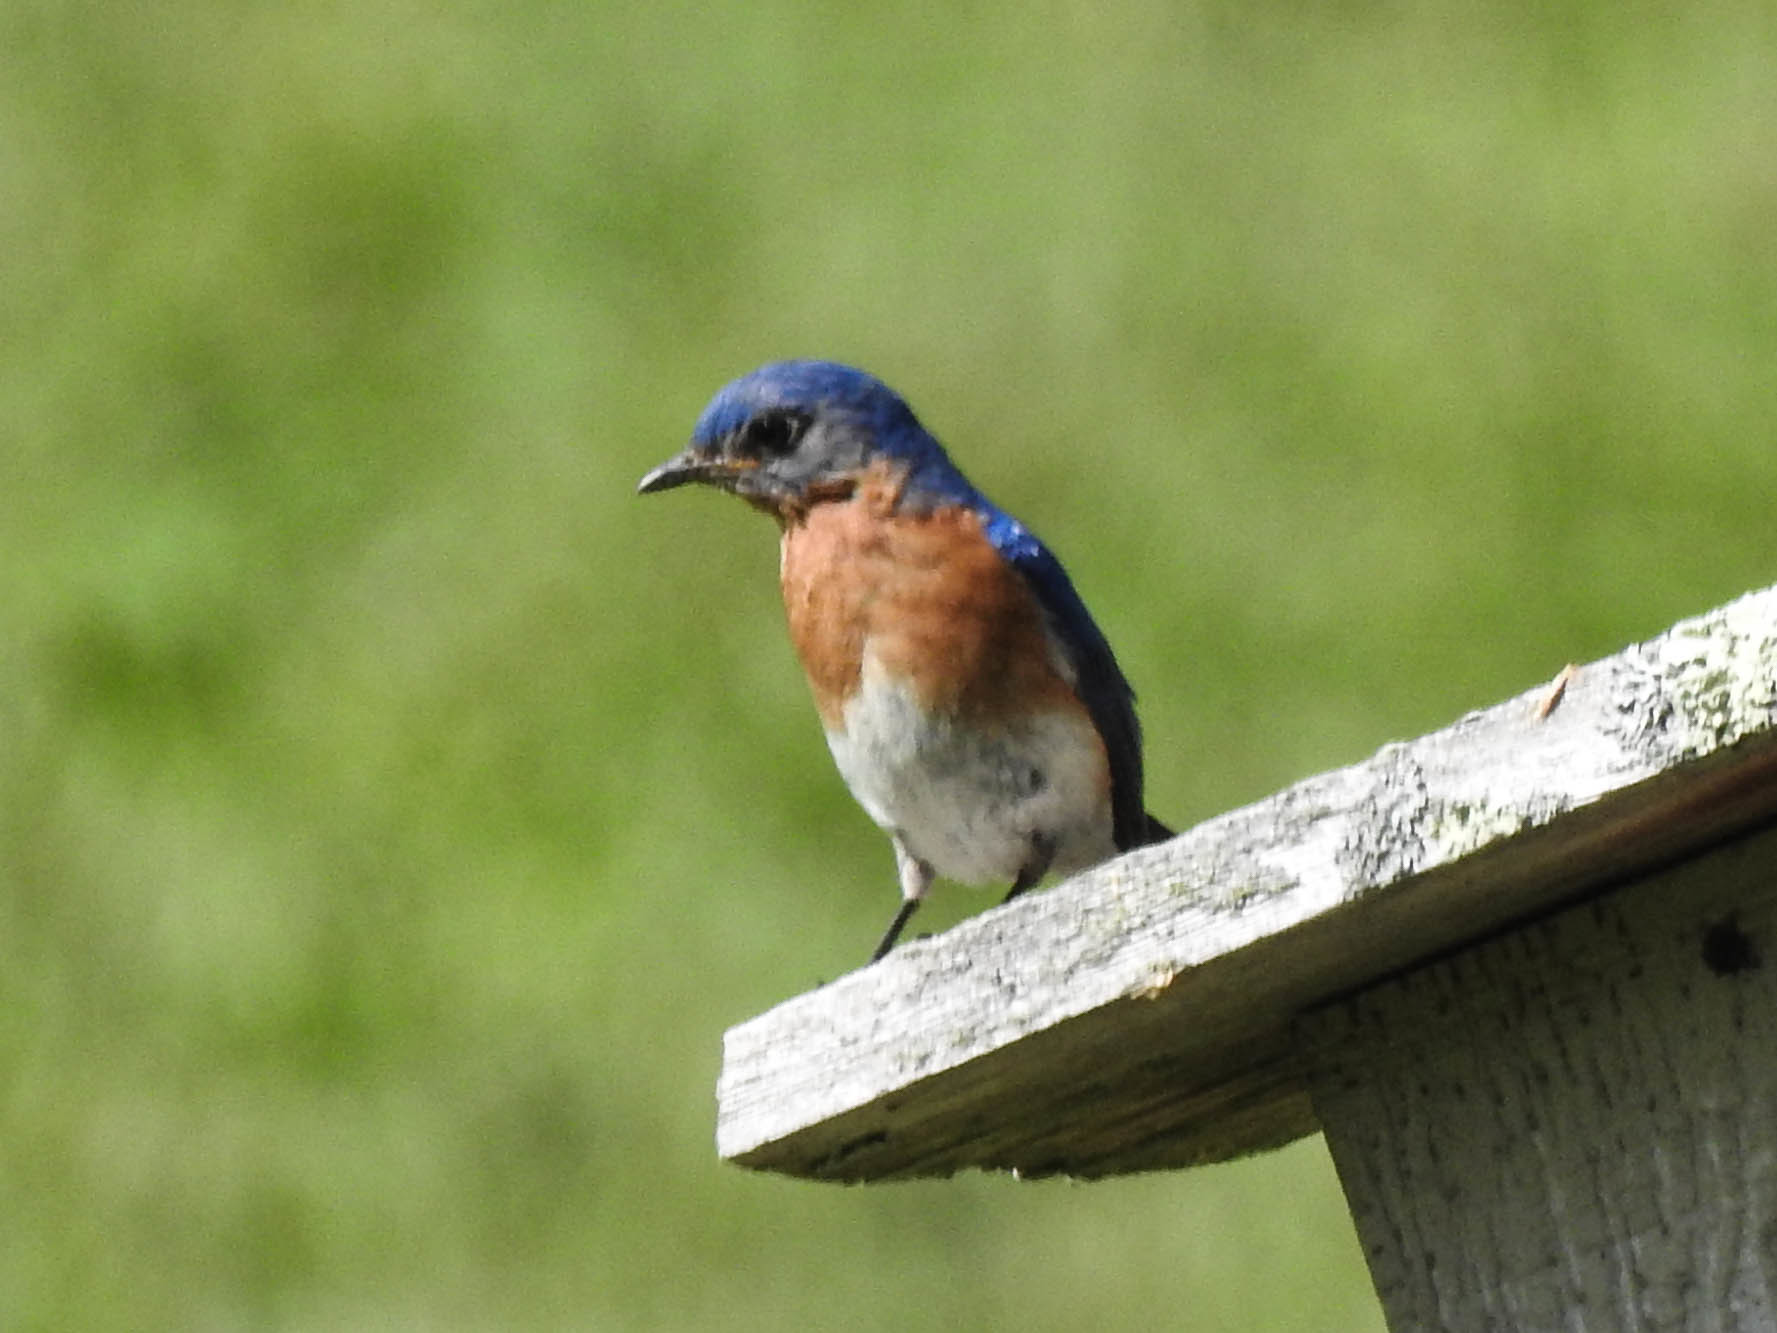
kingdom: Animalia
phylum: Chordata
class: Aves
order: Passeriformes
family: Turdidae
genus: Sialia
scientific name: Sialia sialis
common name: Eastern bluebird
